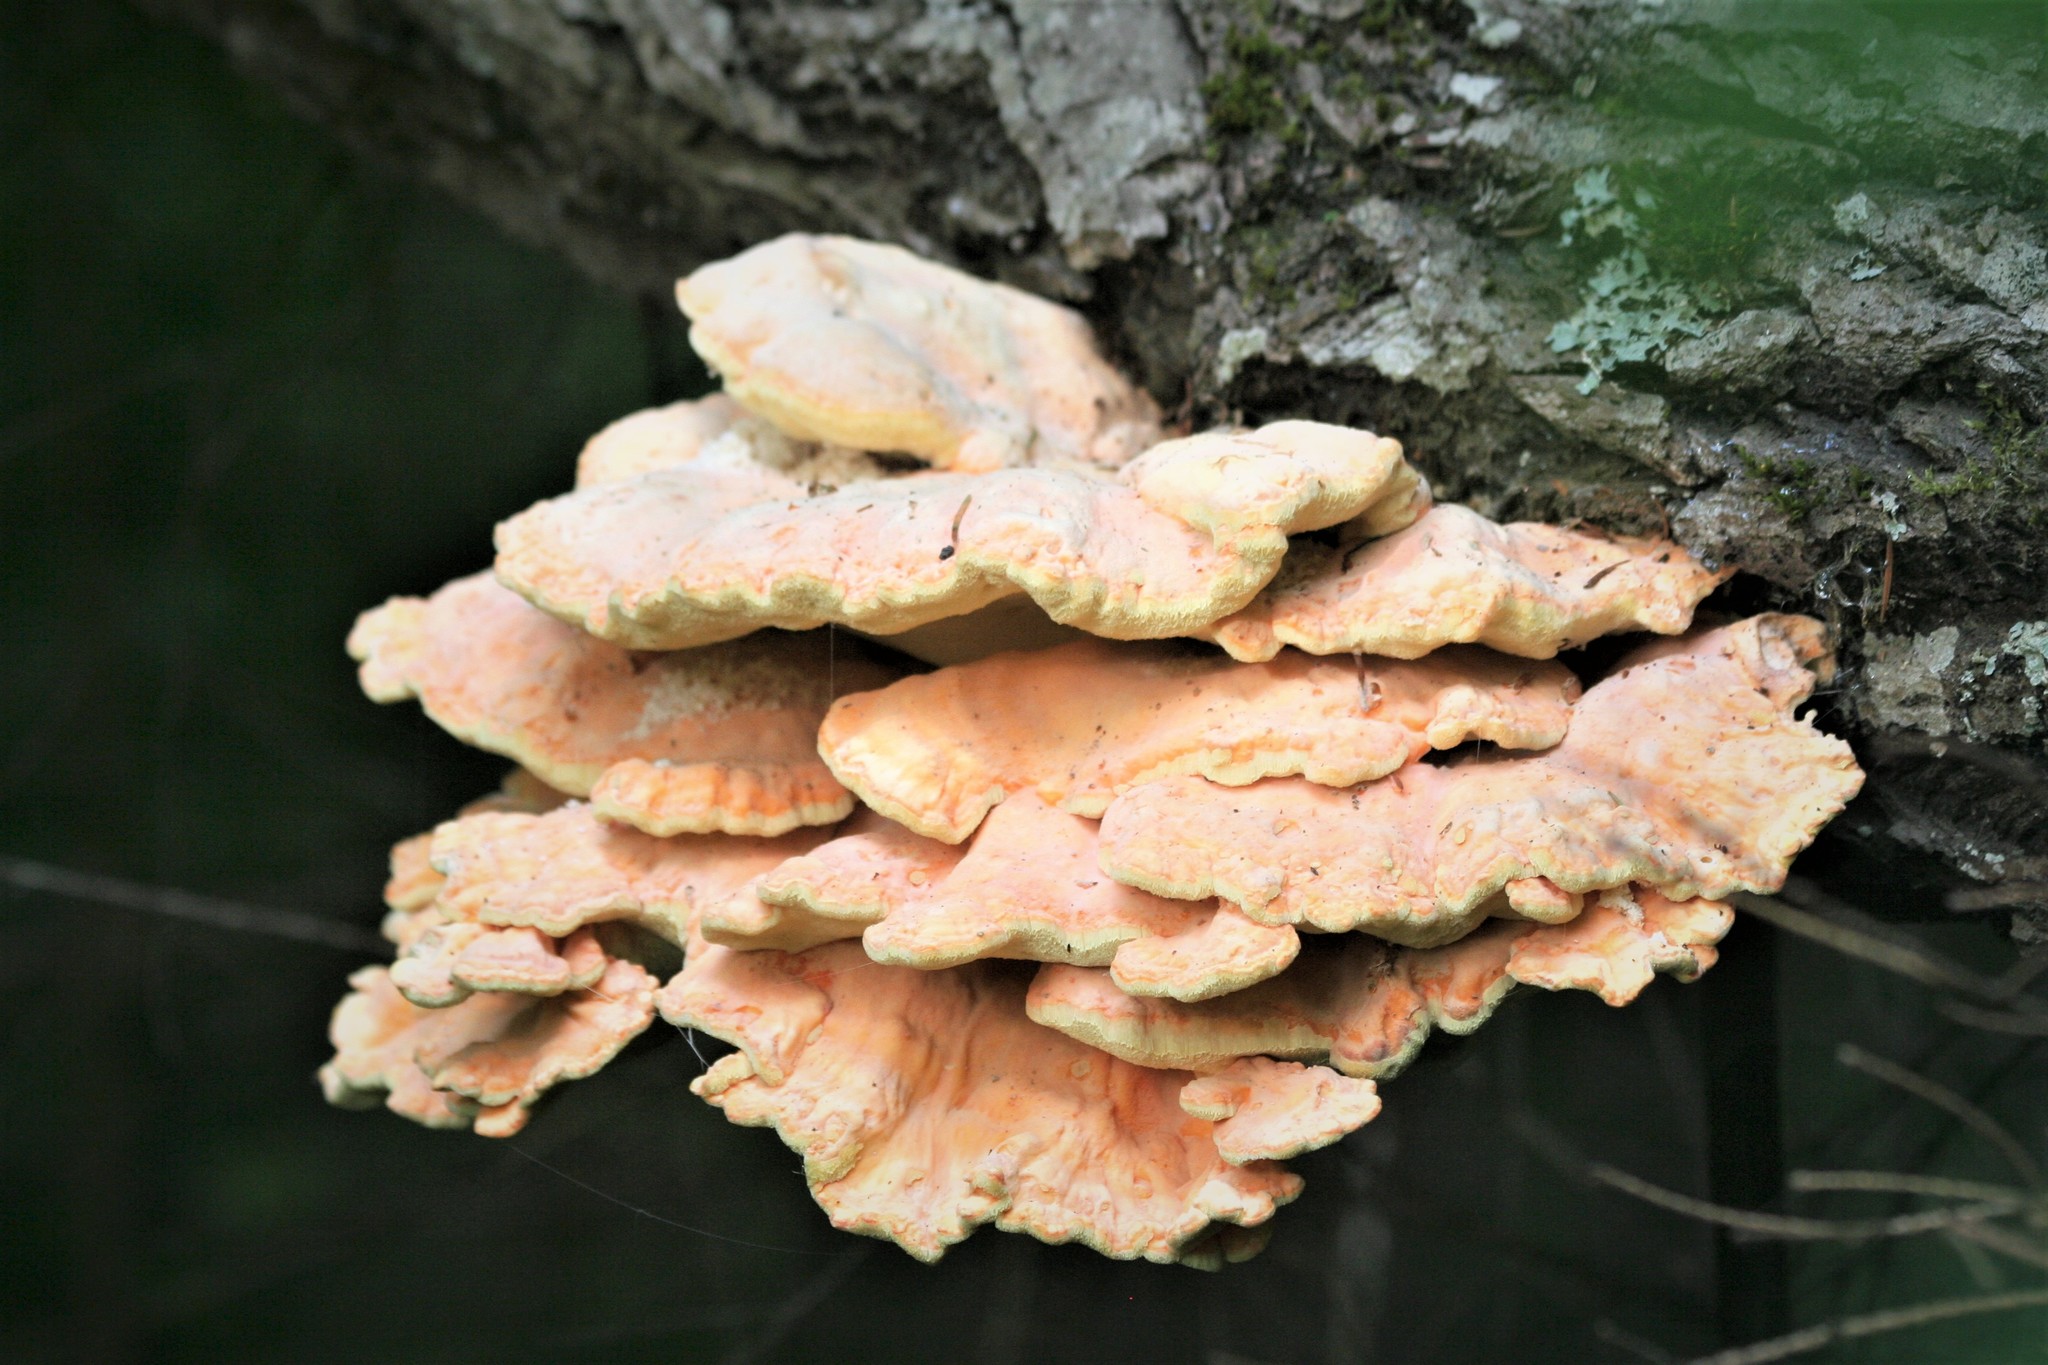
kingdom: Fungi
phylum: Basidiomycota
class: Agaricomycetes
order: Polyporales
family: Laetiporaceae
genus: Laetiporus
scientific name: Laetiporus sulphureus
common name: Chicken of the woods
